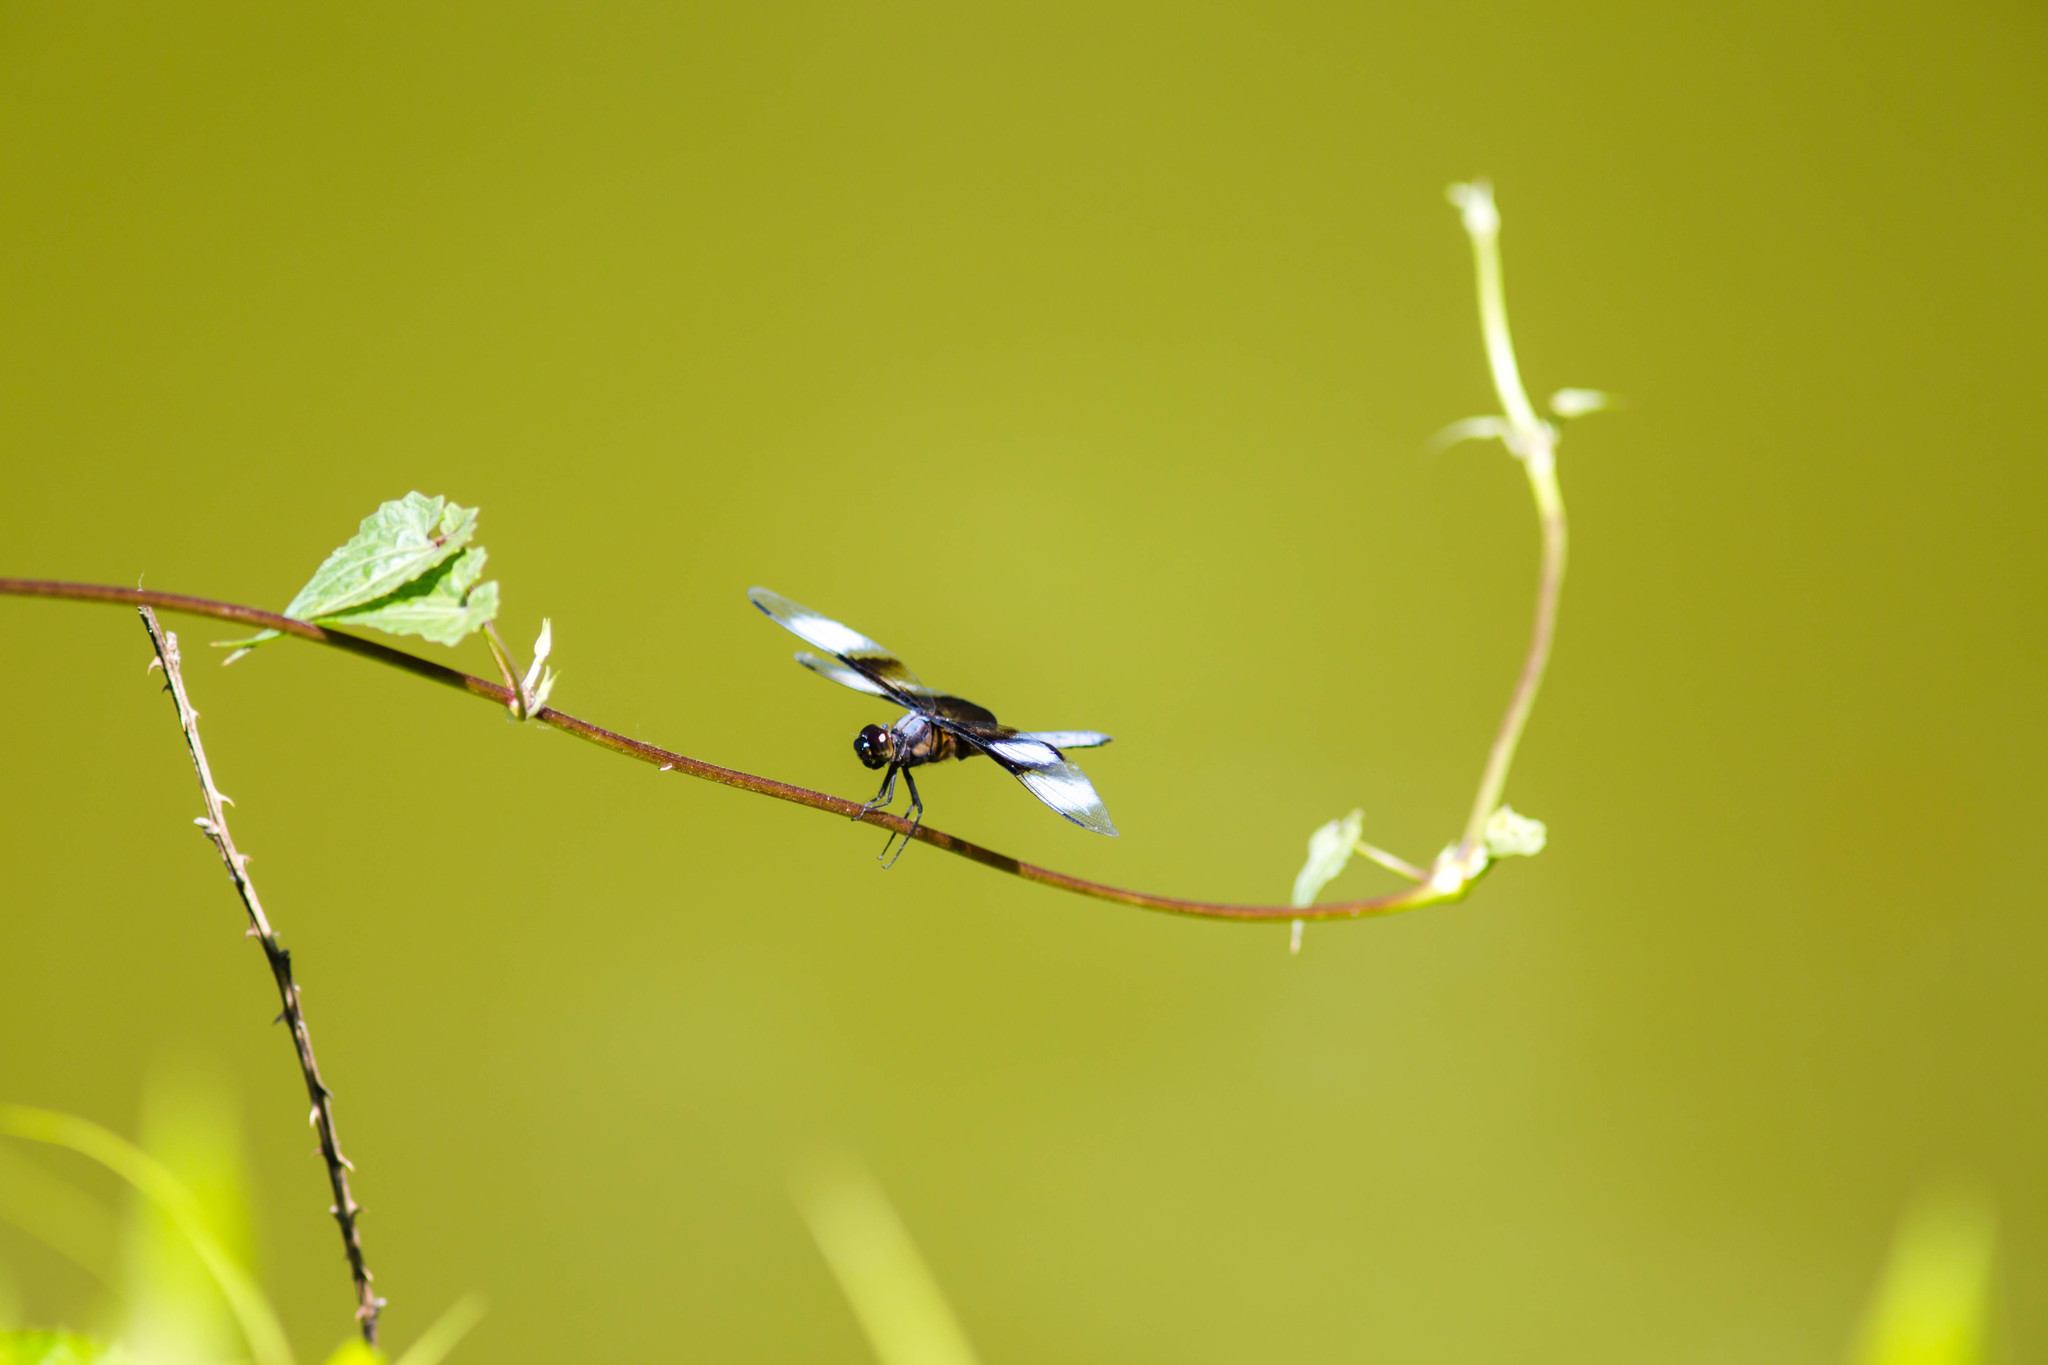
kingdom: Animalia
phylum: Arthropoda
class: Insecta
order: Odonata
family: Libellulidae
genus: Libellula
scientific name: Libellula luctuosa
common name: Widow skimmer
